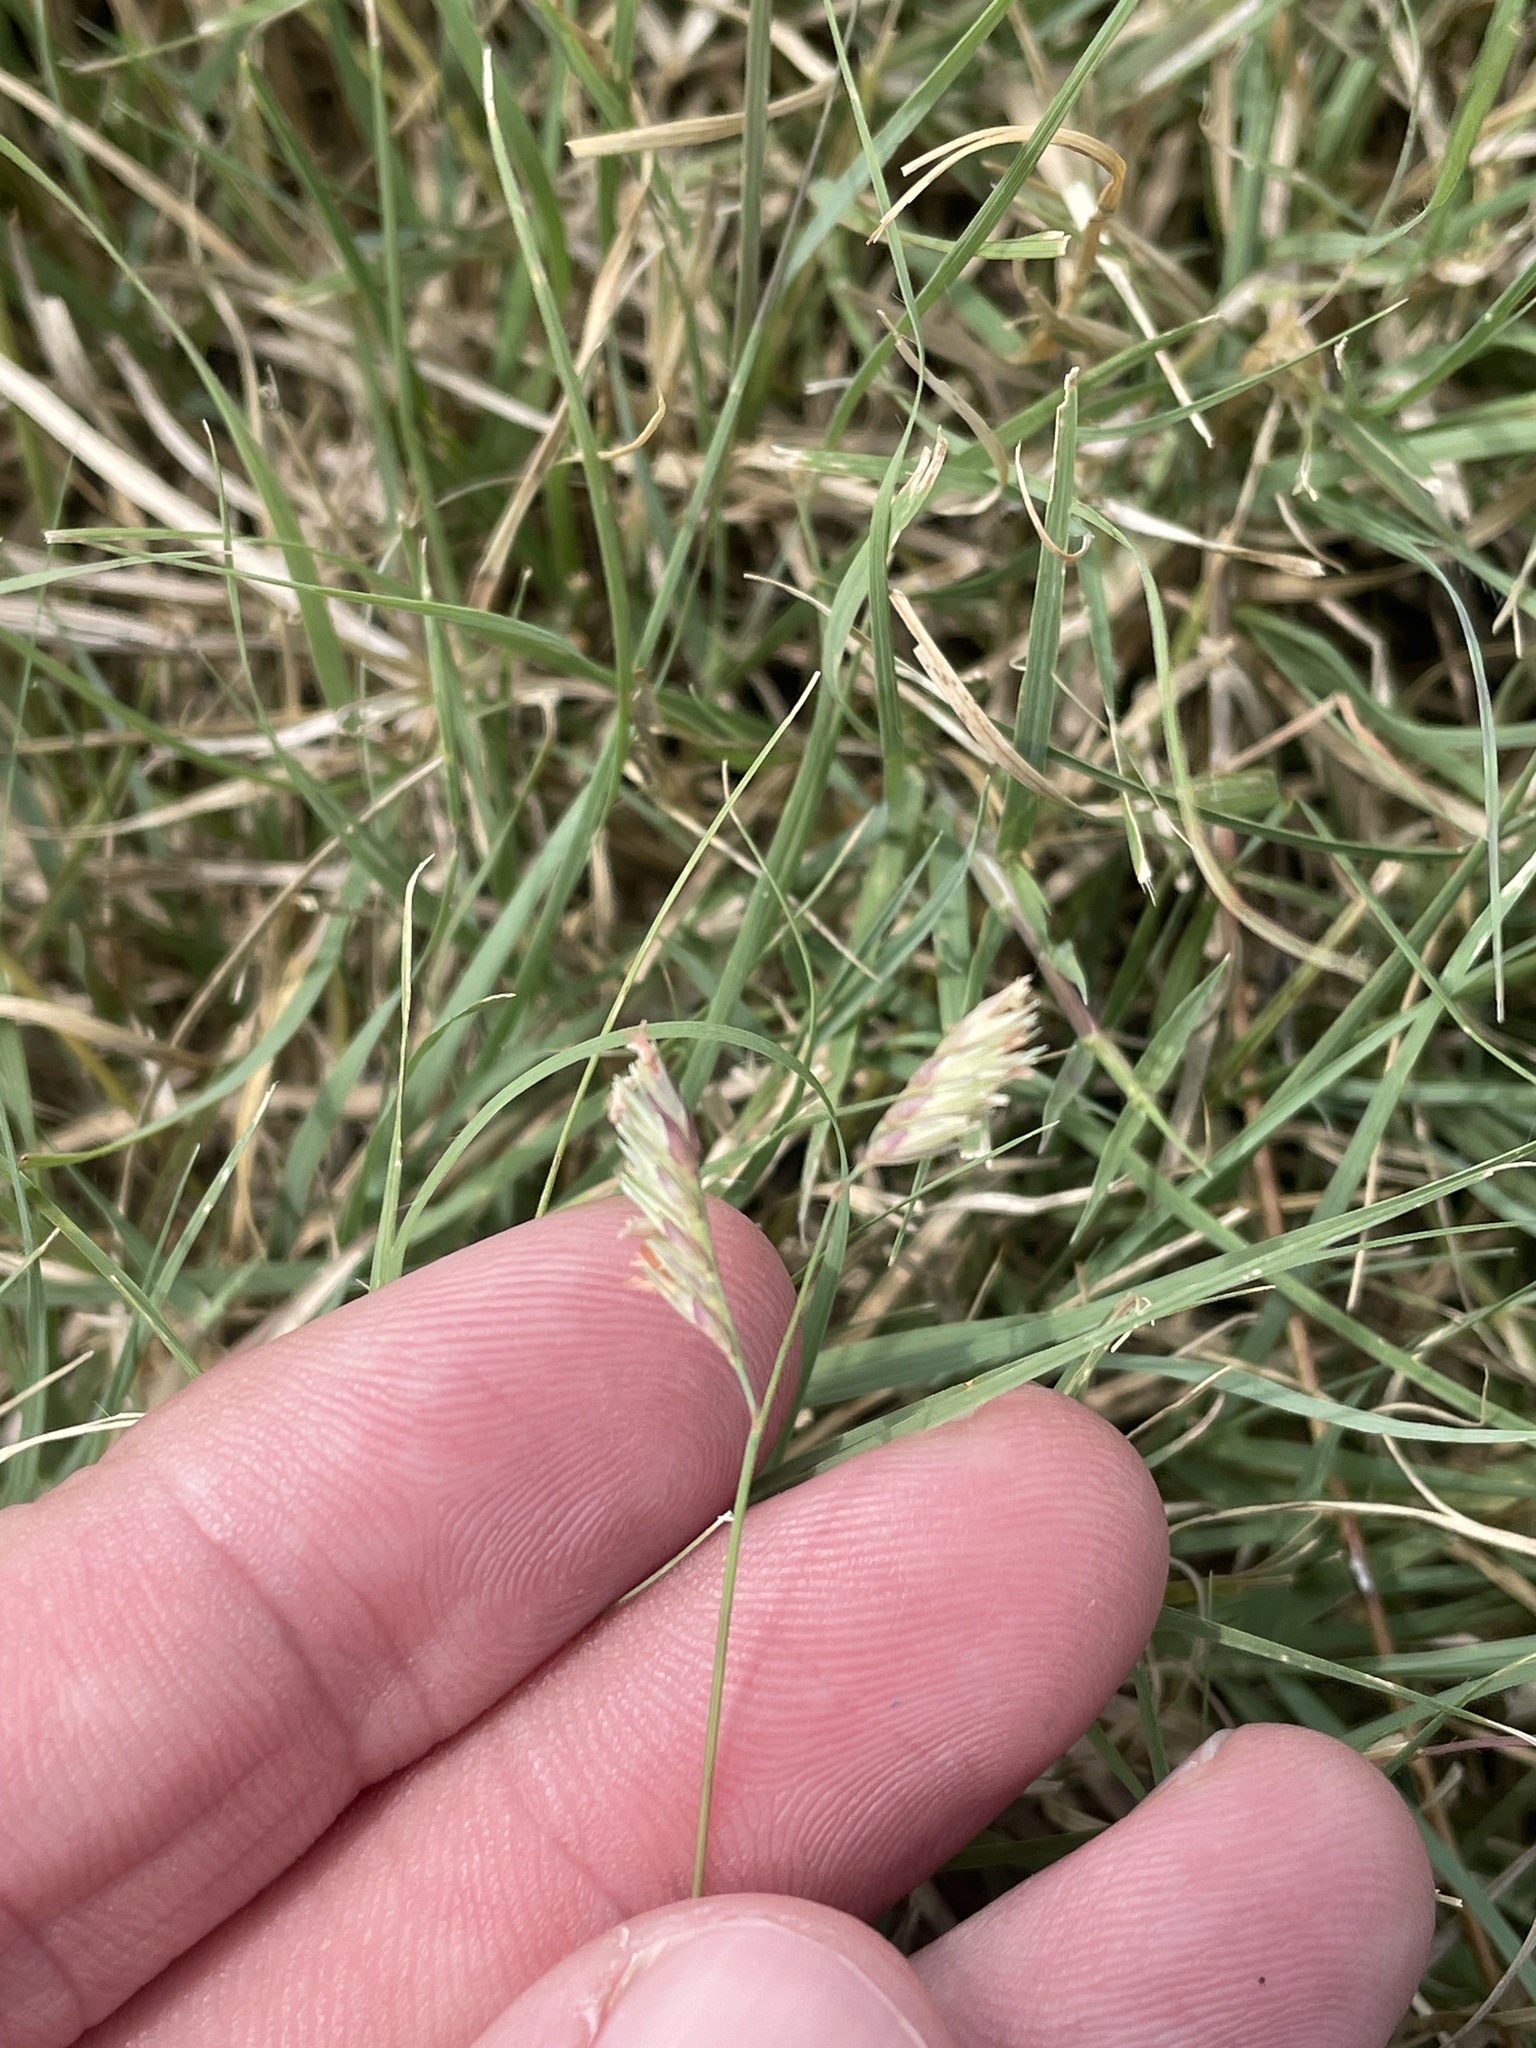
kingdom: Plantae
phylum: Tracheophyta
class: Liliopsida
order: Poales
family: Poaceae
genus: Bouteloua
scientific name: Bouteloua dactyloides
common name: Buffalo grass
